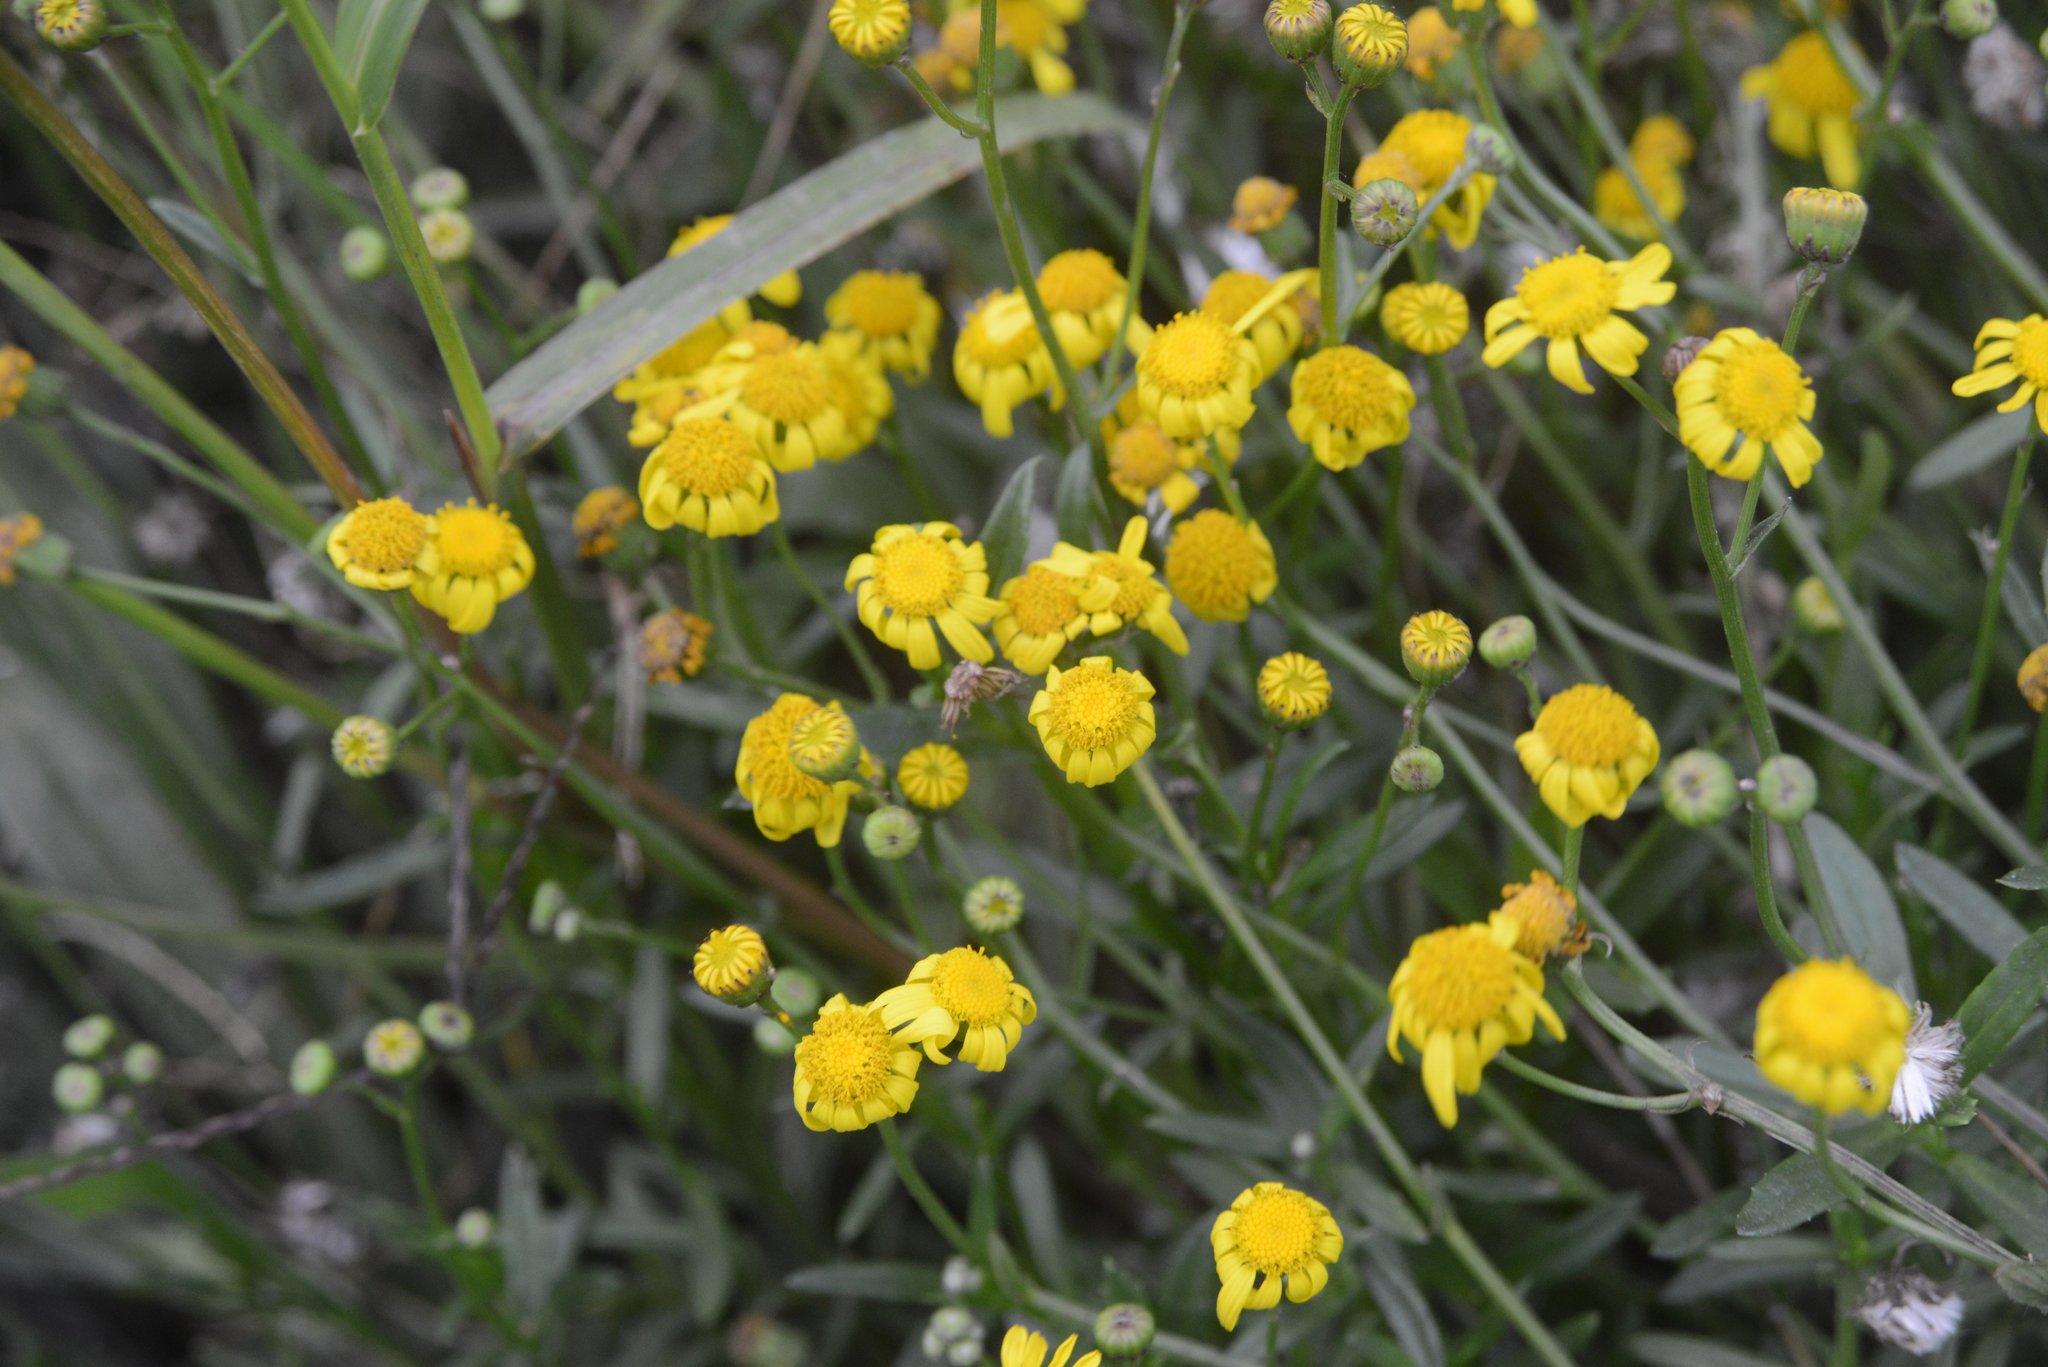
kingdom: Plantae
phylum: Tracheophyta
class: Magnoliopsida
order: Asterales
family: Asteraceae
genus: Senecio
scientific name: Senecio skirrhodon
